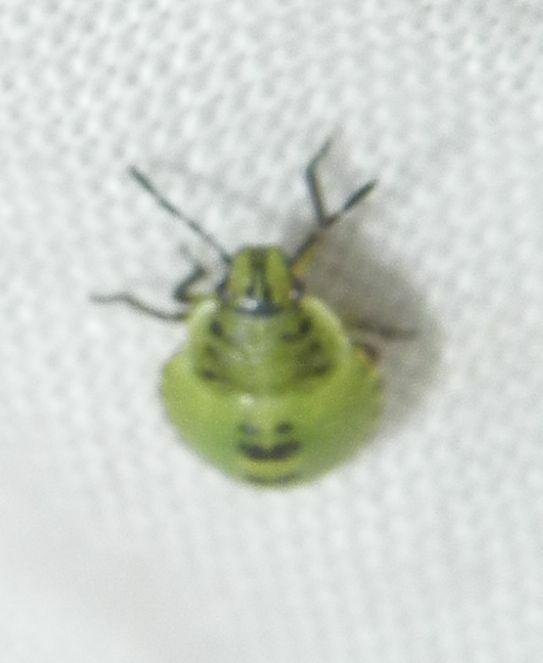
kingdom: Animalia
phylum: Arthropoda
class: Insecta
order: Hemiptera
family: Pentatomidae
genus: Palomena
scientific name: Palomena prasina
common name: Green shieldbug
